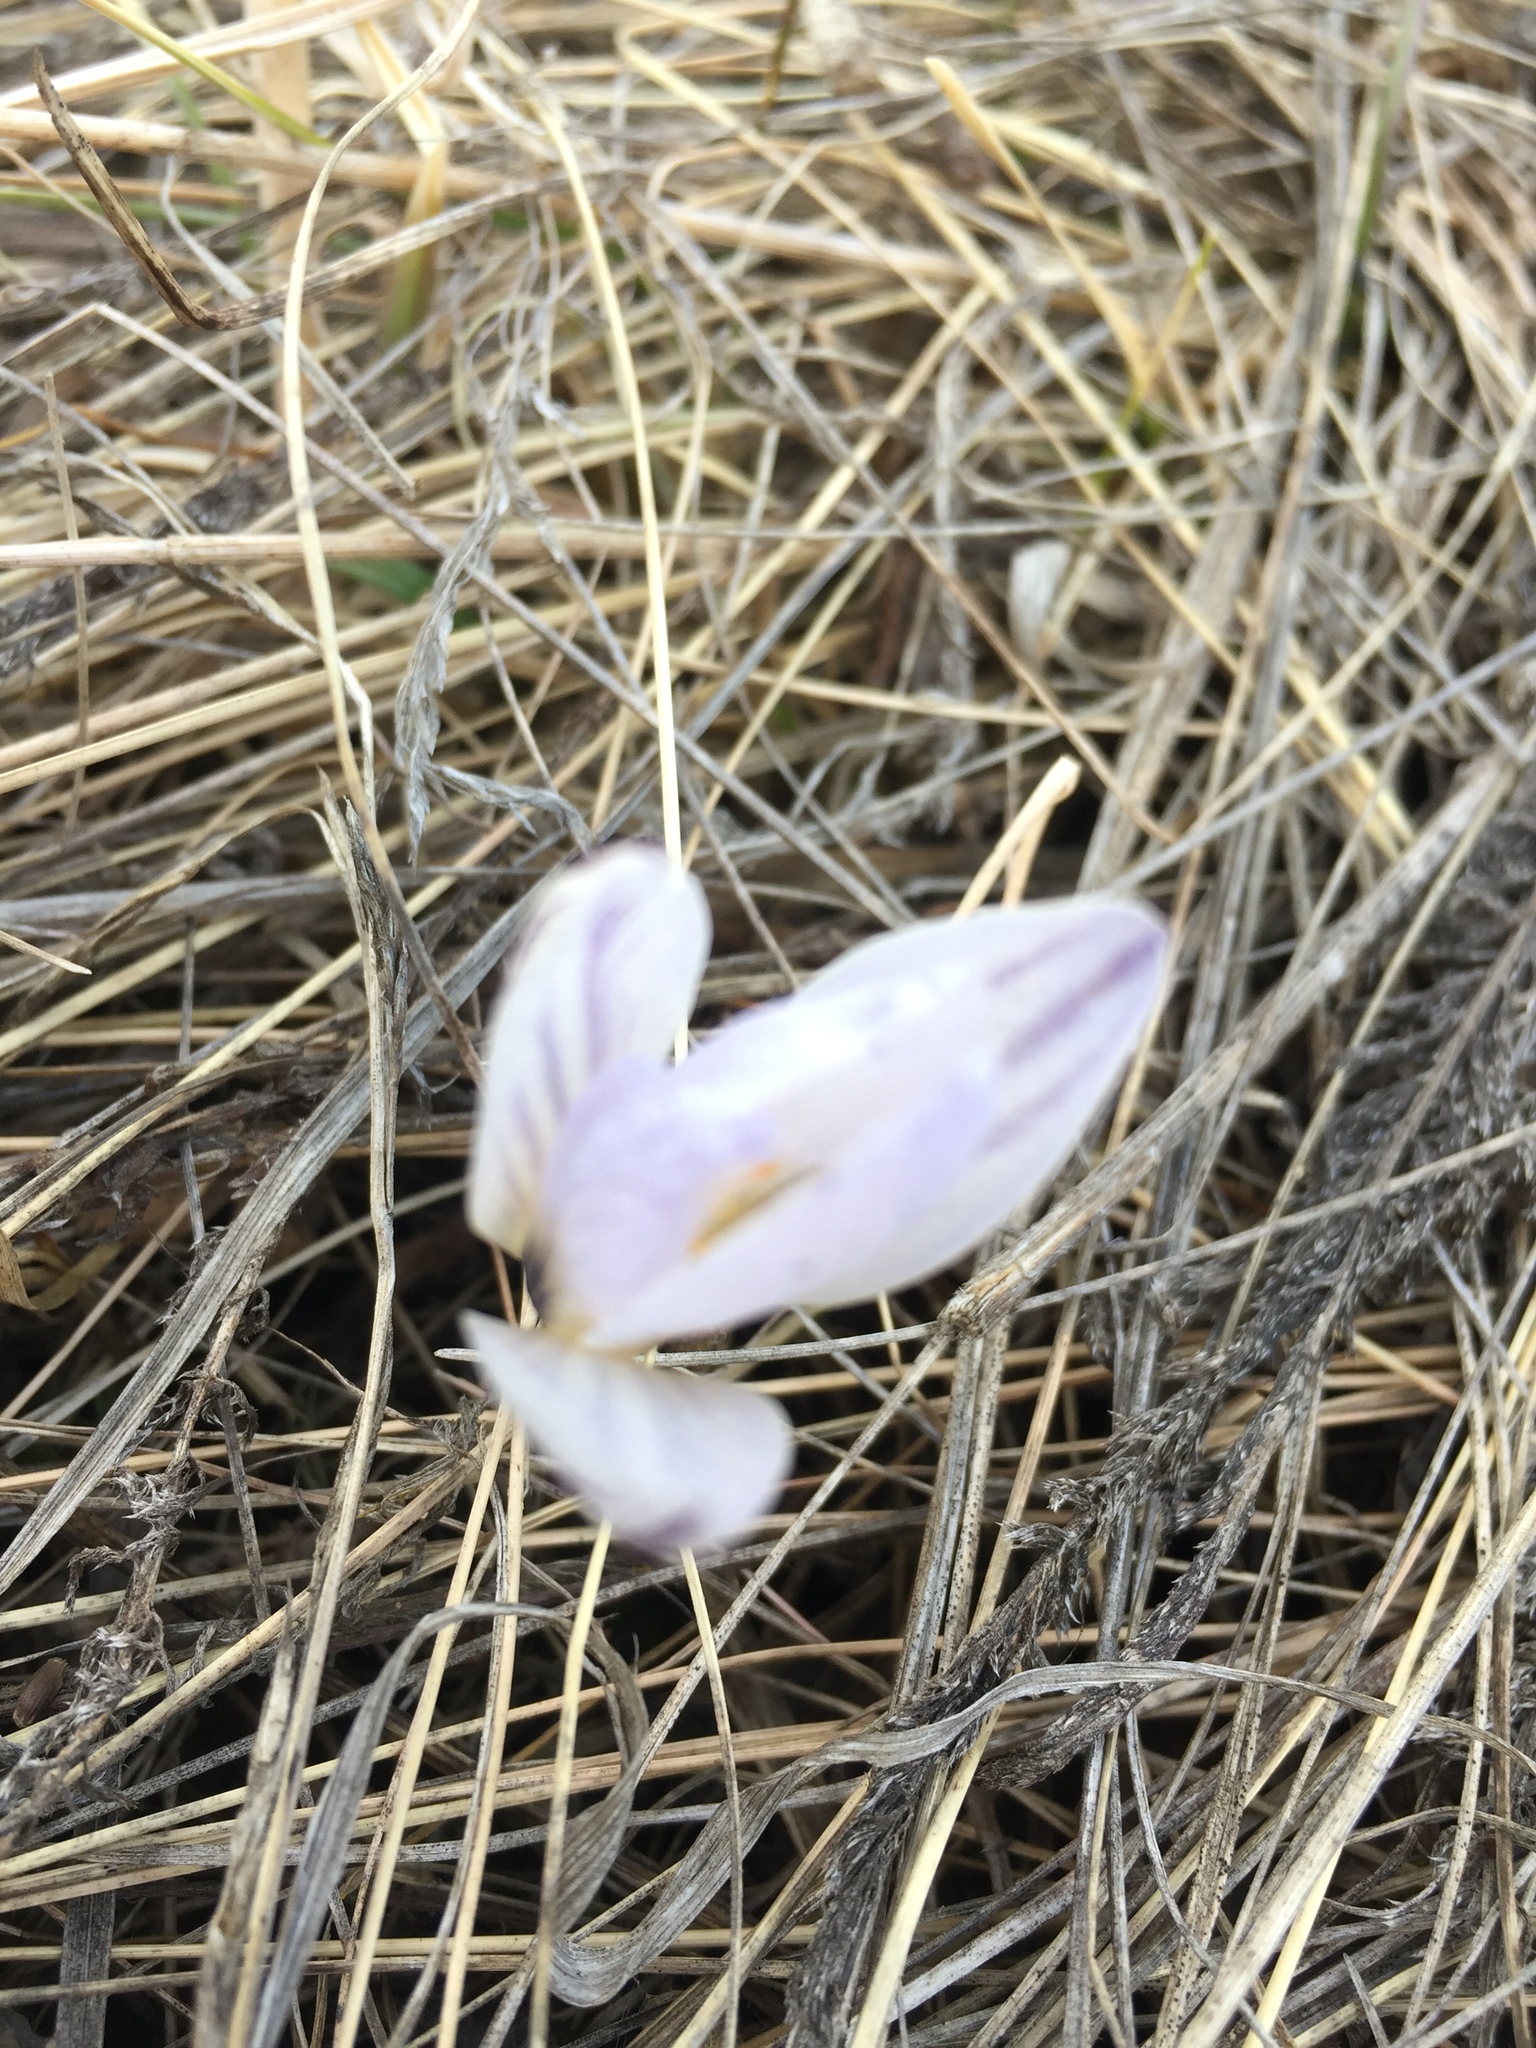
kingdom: Plantae
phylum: Tracheophyta
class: Liliopsida
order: Asparagales
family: Iridaceae
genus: Crocus
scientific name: Crocus reticulatus
